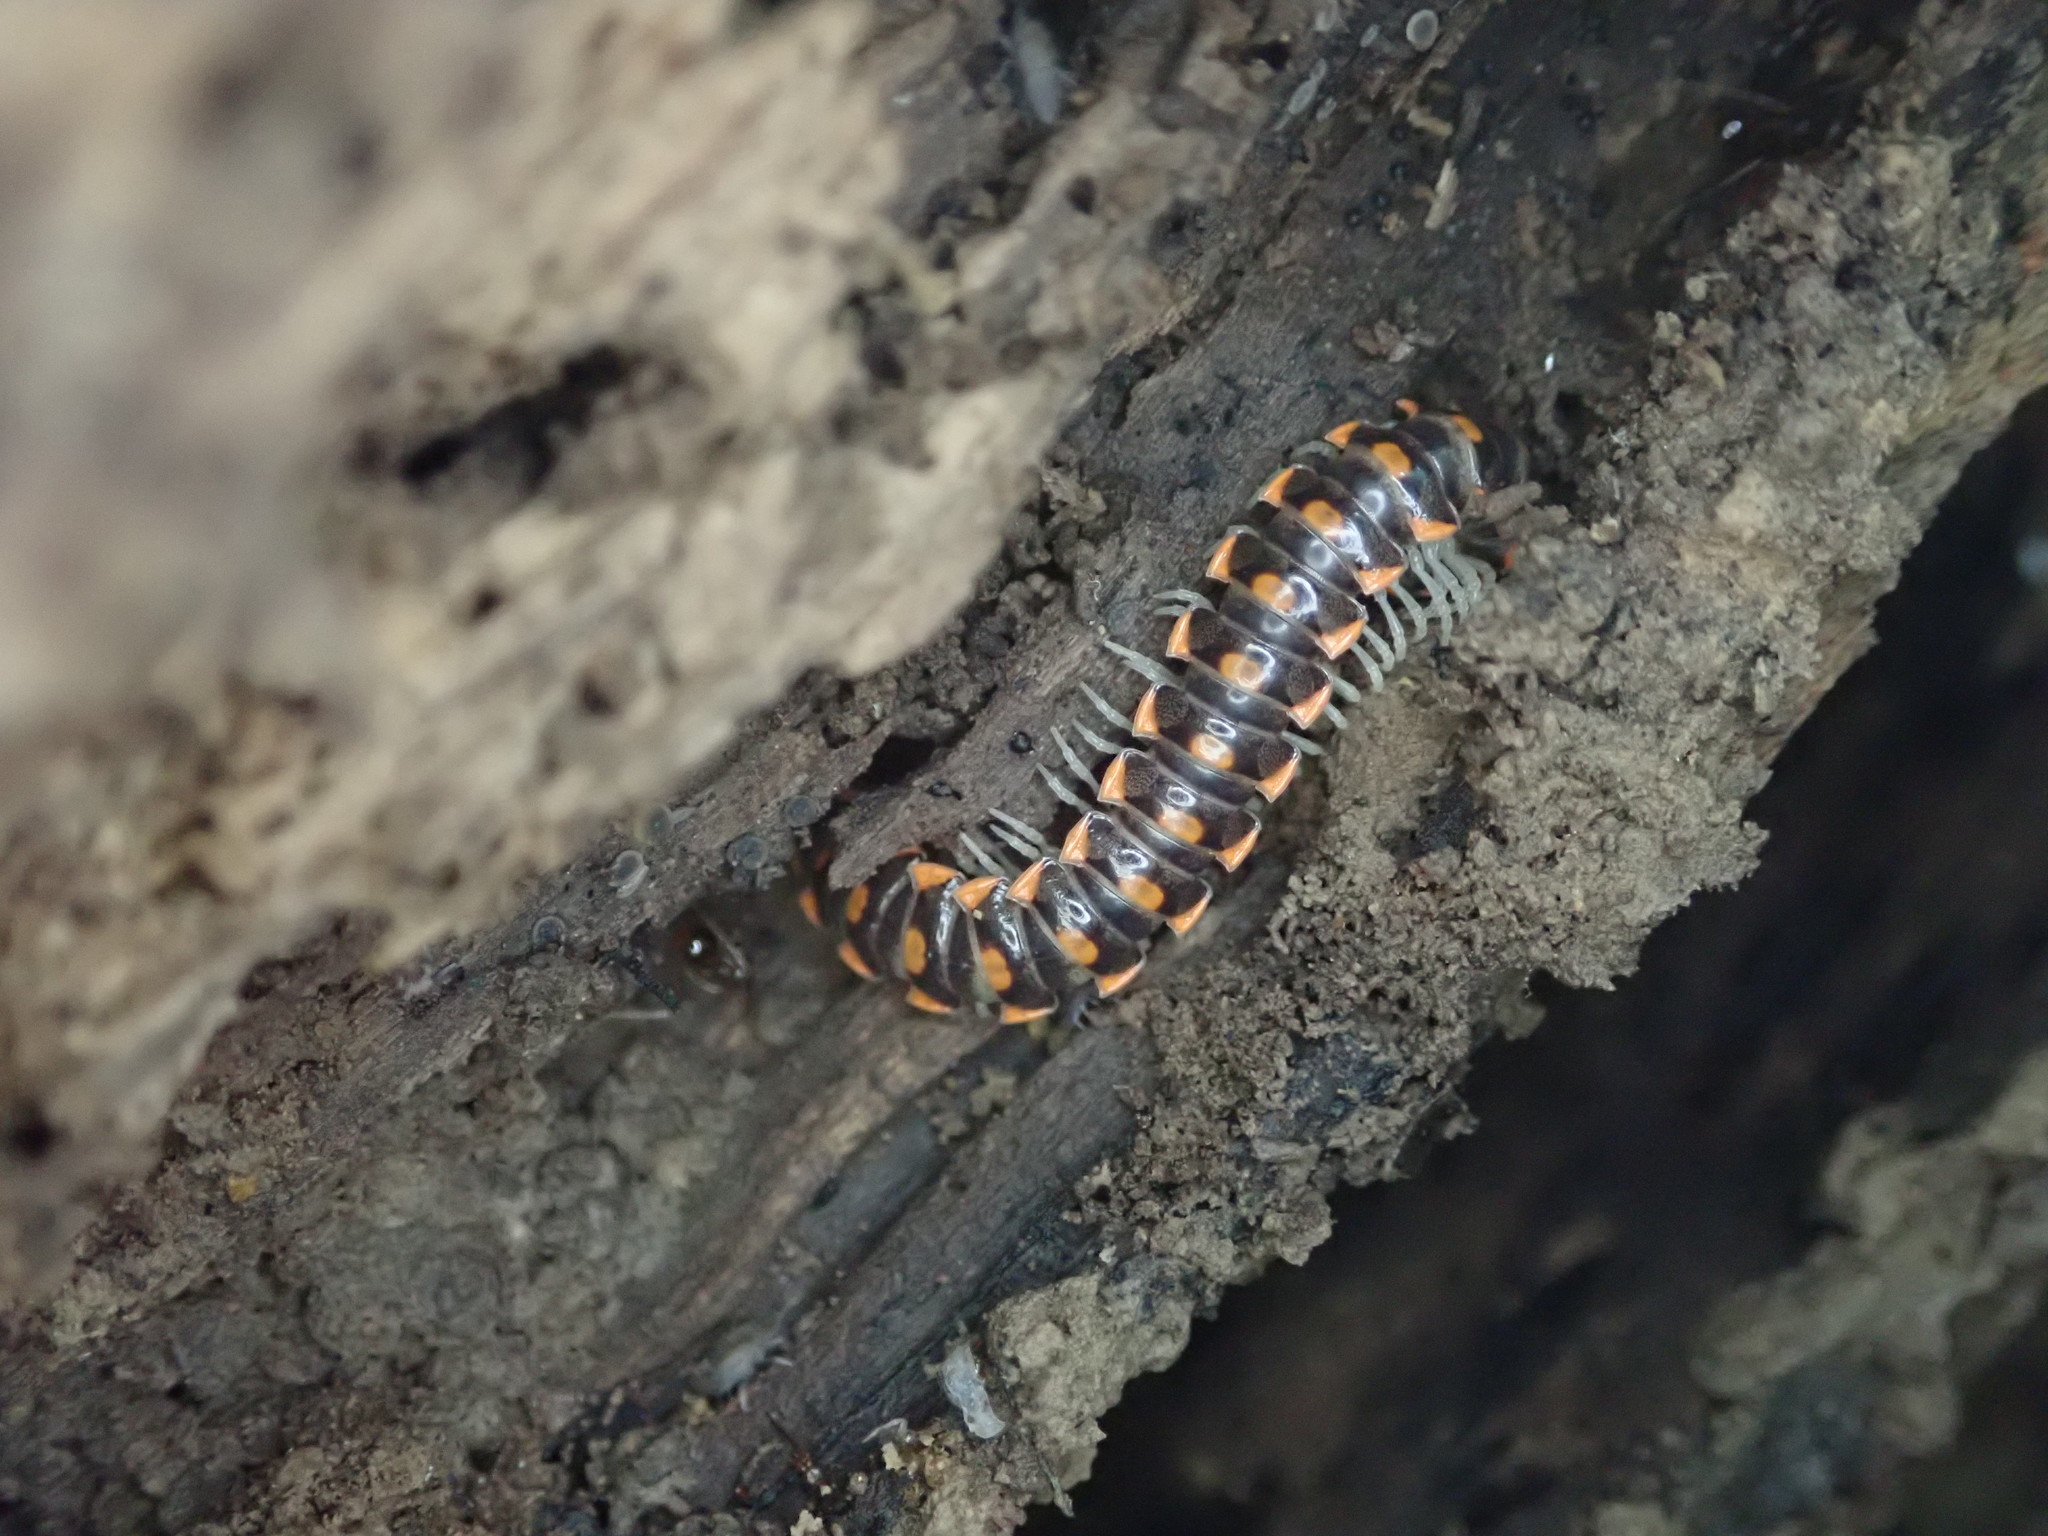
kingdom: Animalia
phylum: Arthropoda
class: Diplopoda
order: Polydesmida
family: Xystodesmidae
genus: Euryurus
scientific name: Euryurus leachii
